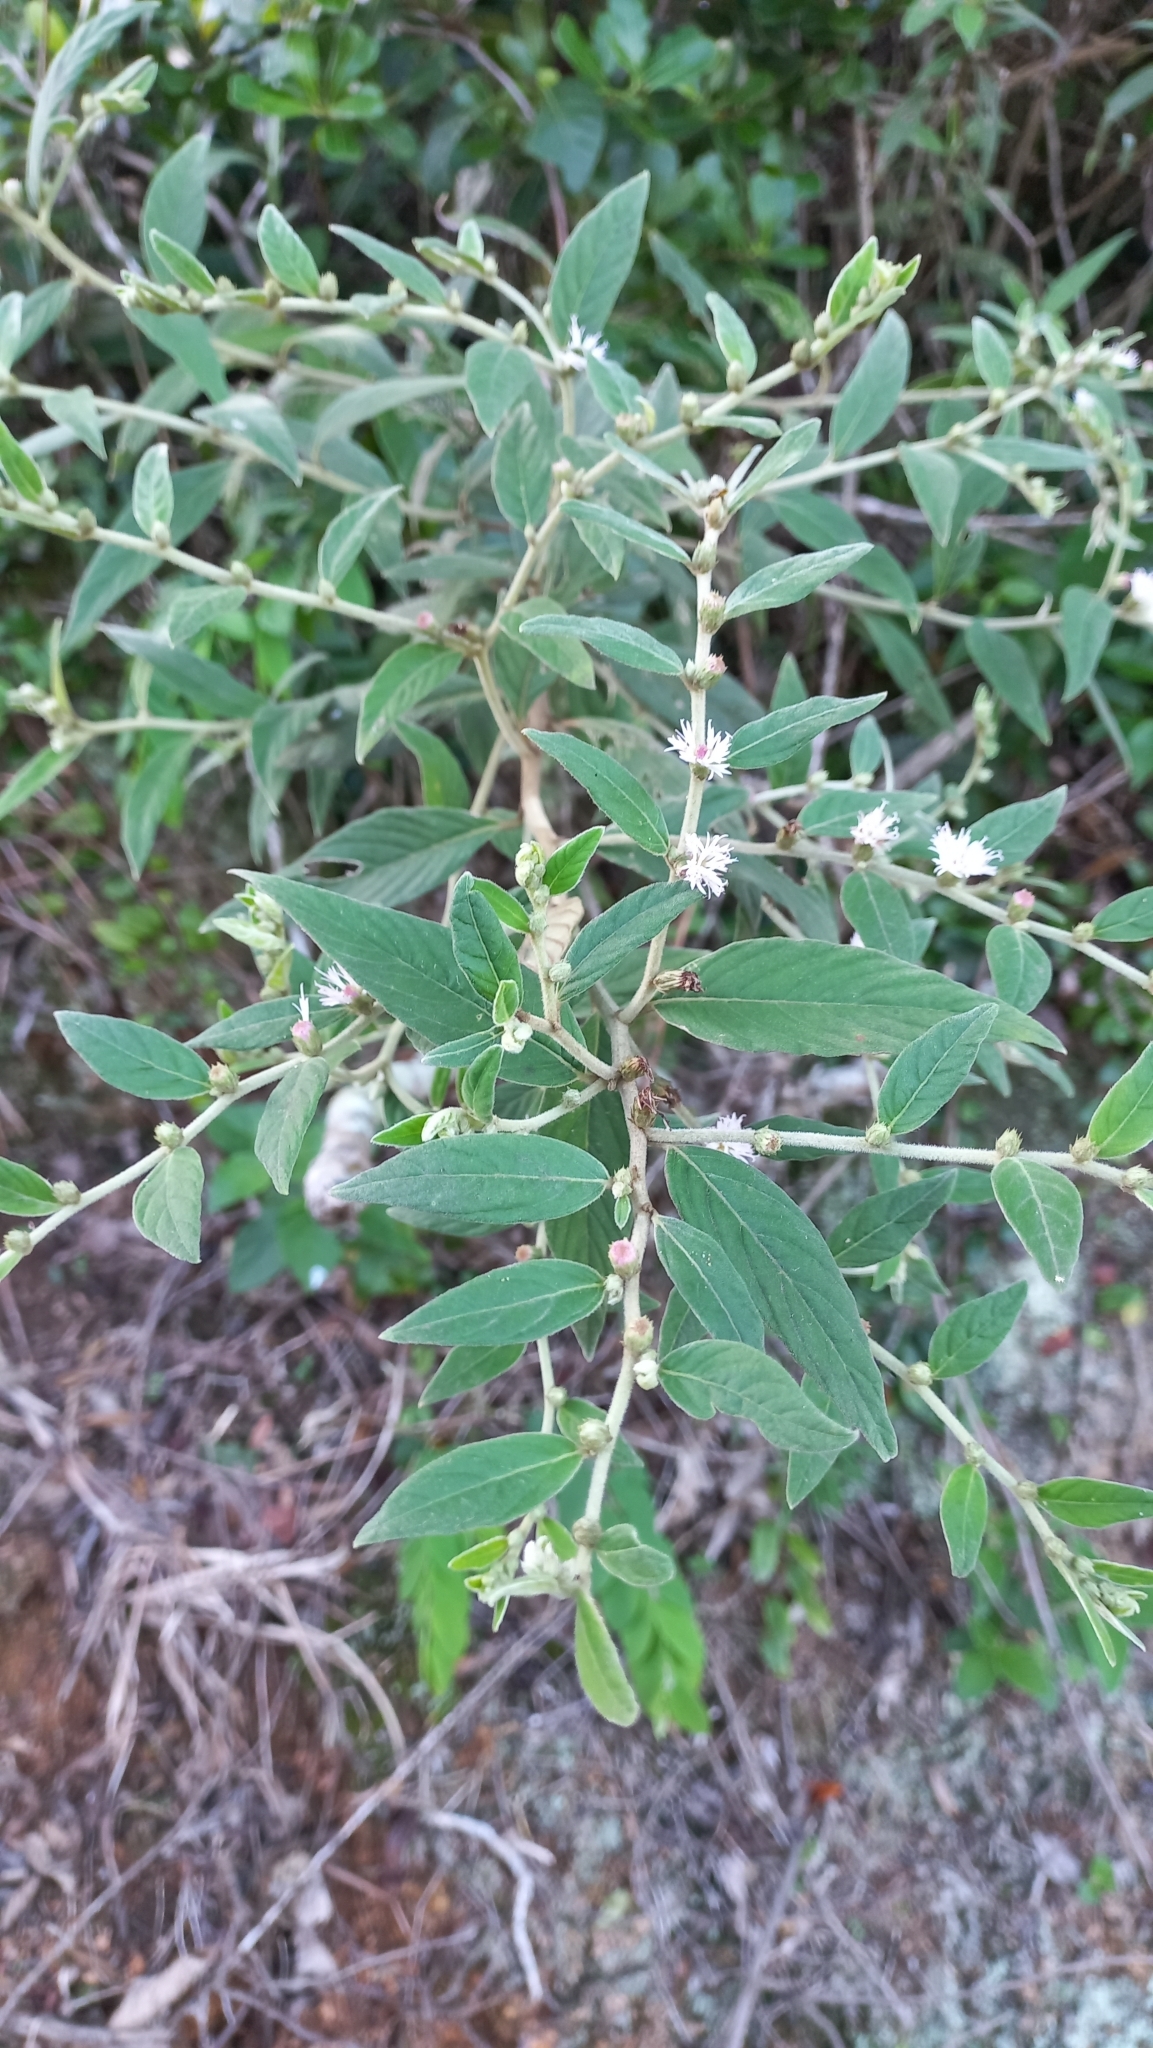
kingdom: Plantae
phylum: Tracheophyta
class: Magnoliopsida
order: Asterales
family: Asteraceae
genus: Lepidaploa
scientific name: Lepidaploa chamissonis
